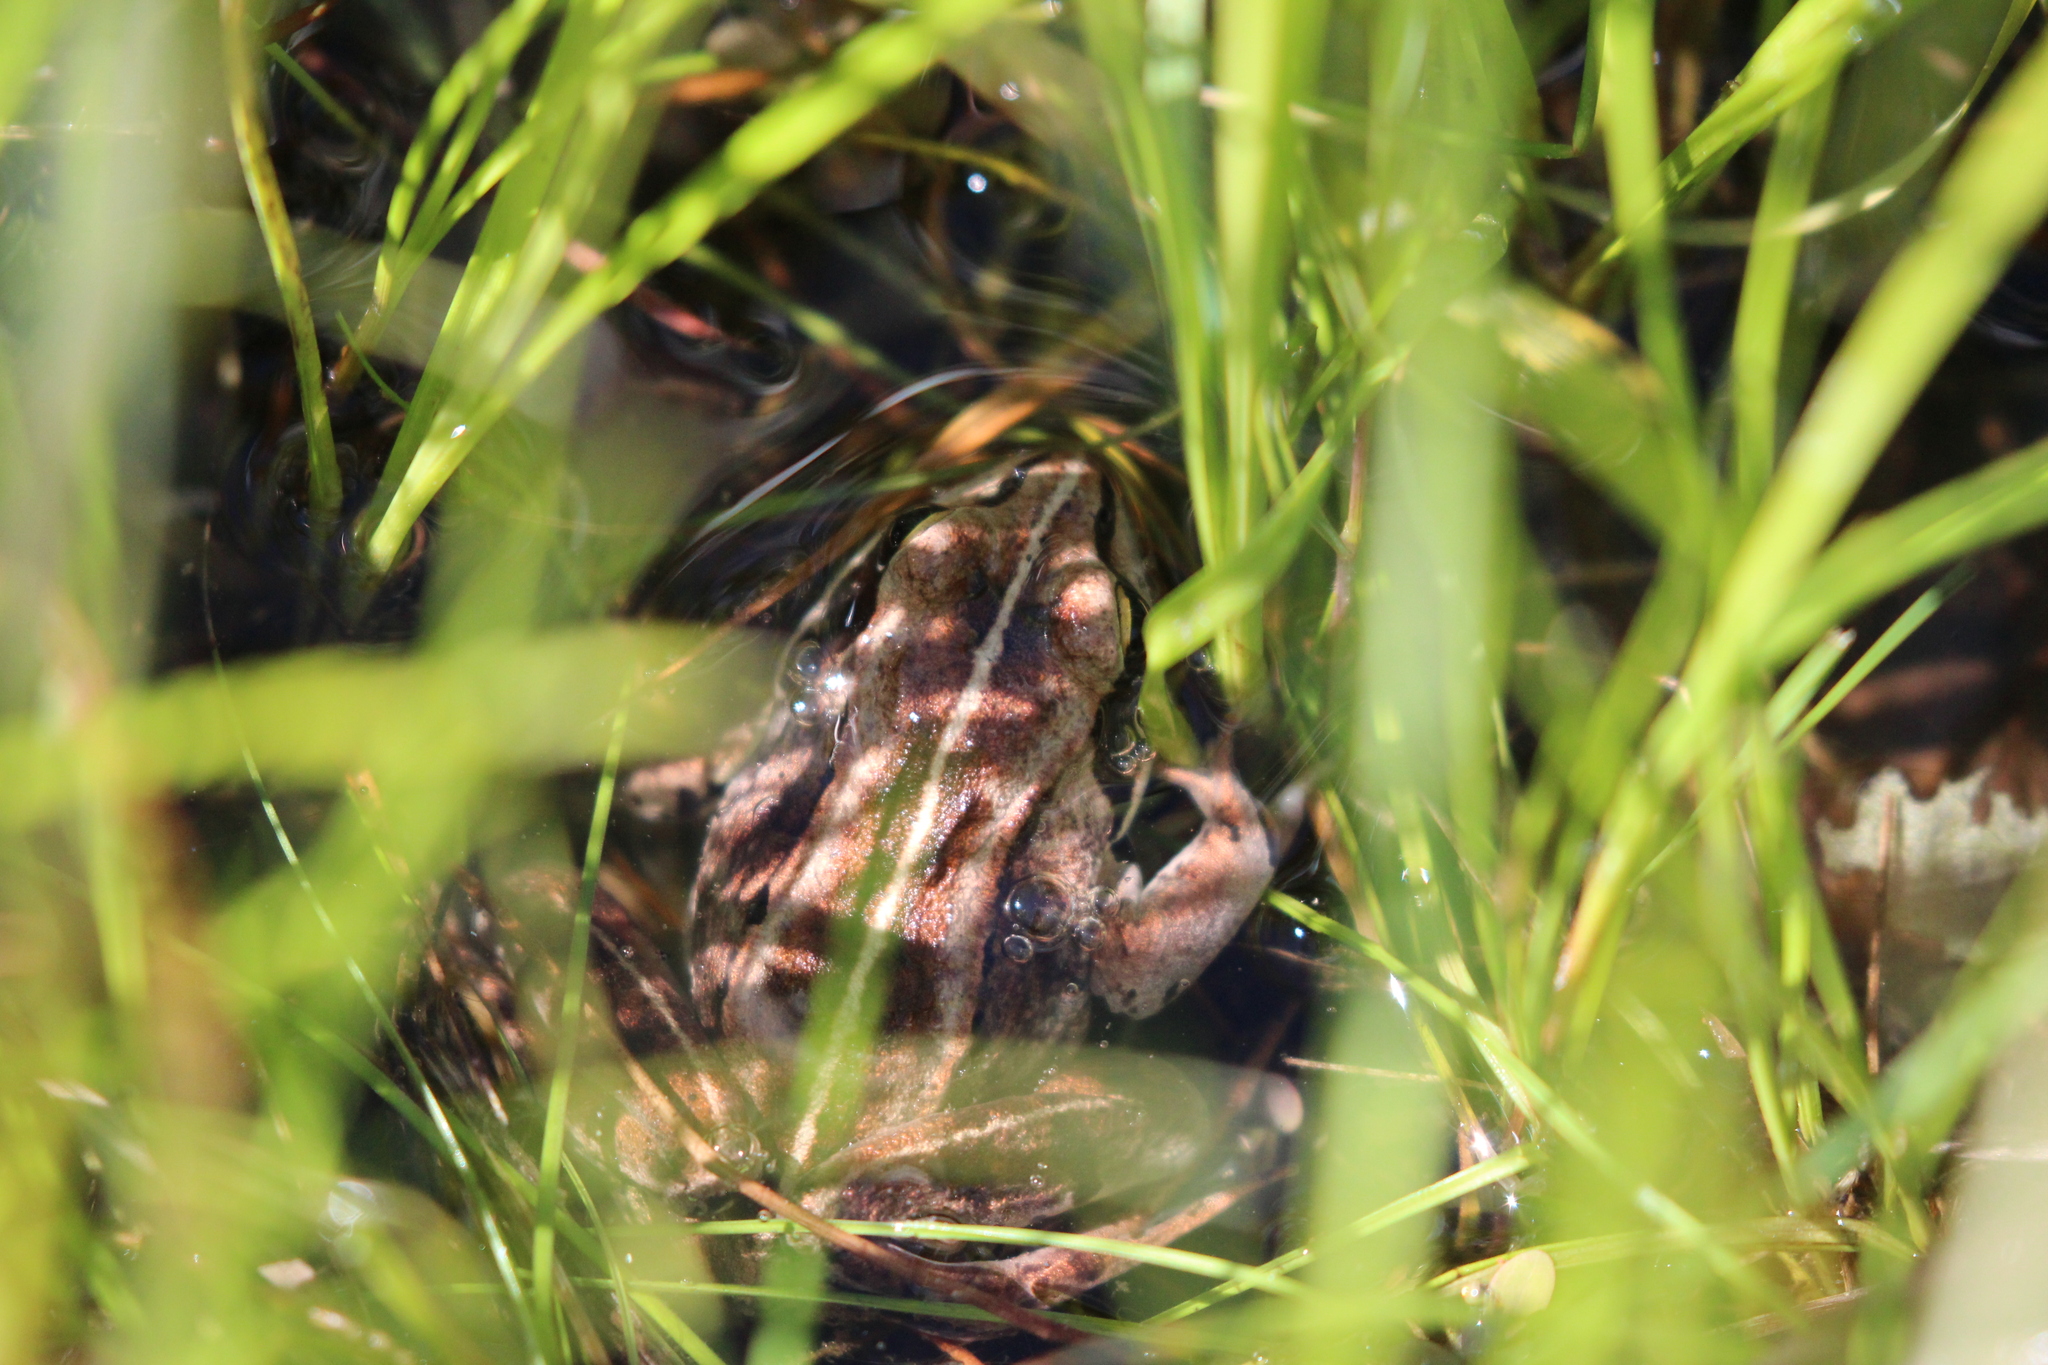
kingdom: Animalia
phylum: Chordata
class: Amphibia
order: Anura
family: Ranidae
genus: Lithobates
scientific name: Lithobates sylvaticus
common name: Wood frog
